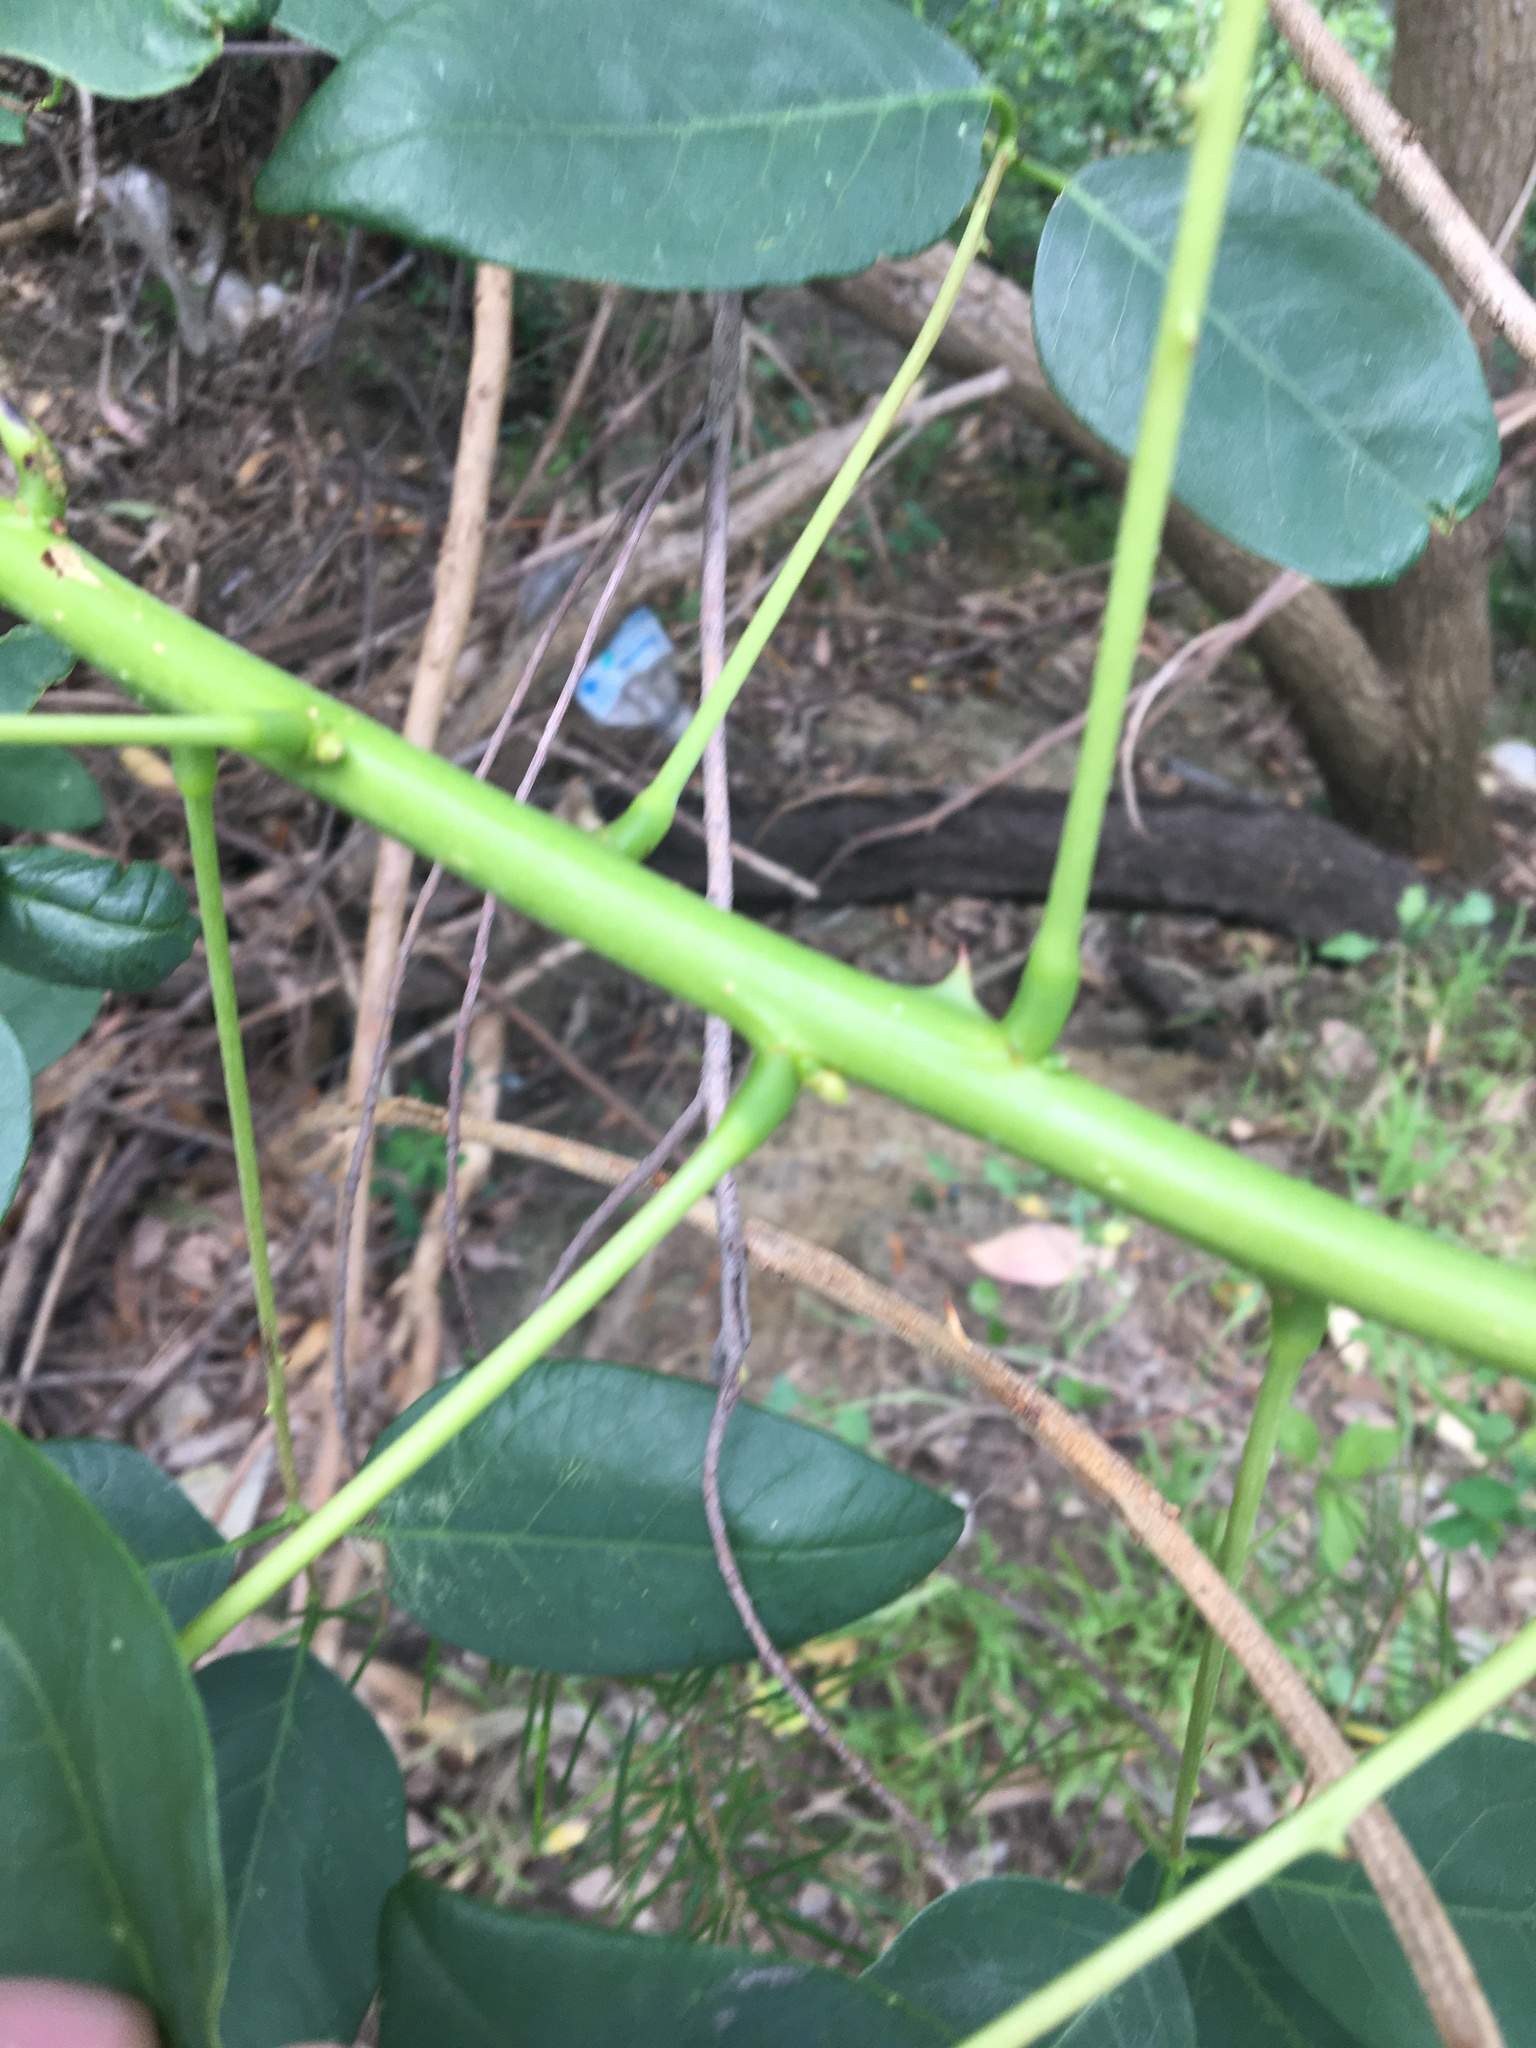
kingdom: Plantae
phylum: Tracheophyta
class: Magnoliopsida
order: Fabales
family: Fabaceae
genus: Erythrina
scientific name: Erythrina crista-galli
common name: Cockspur coral tree
